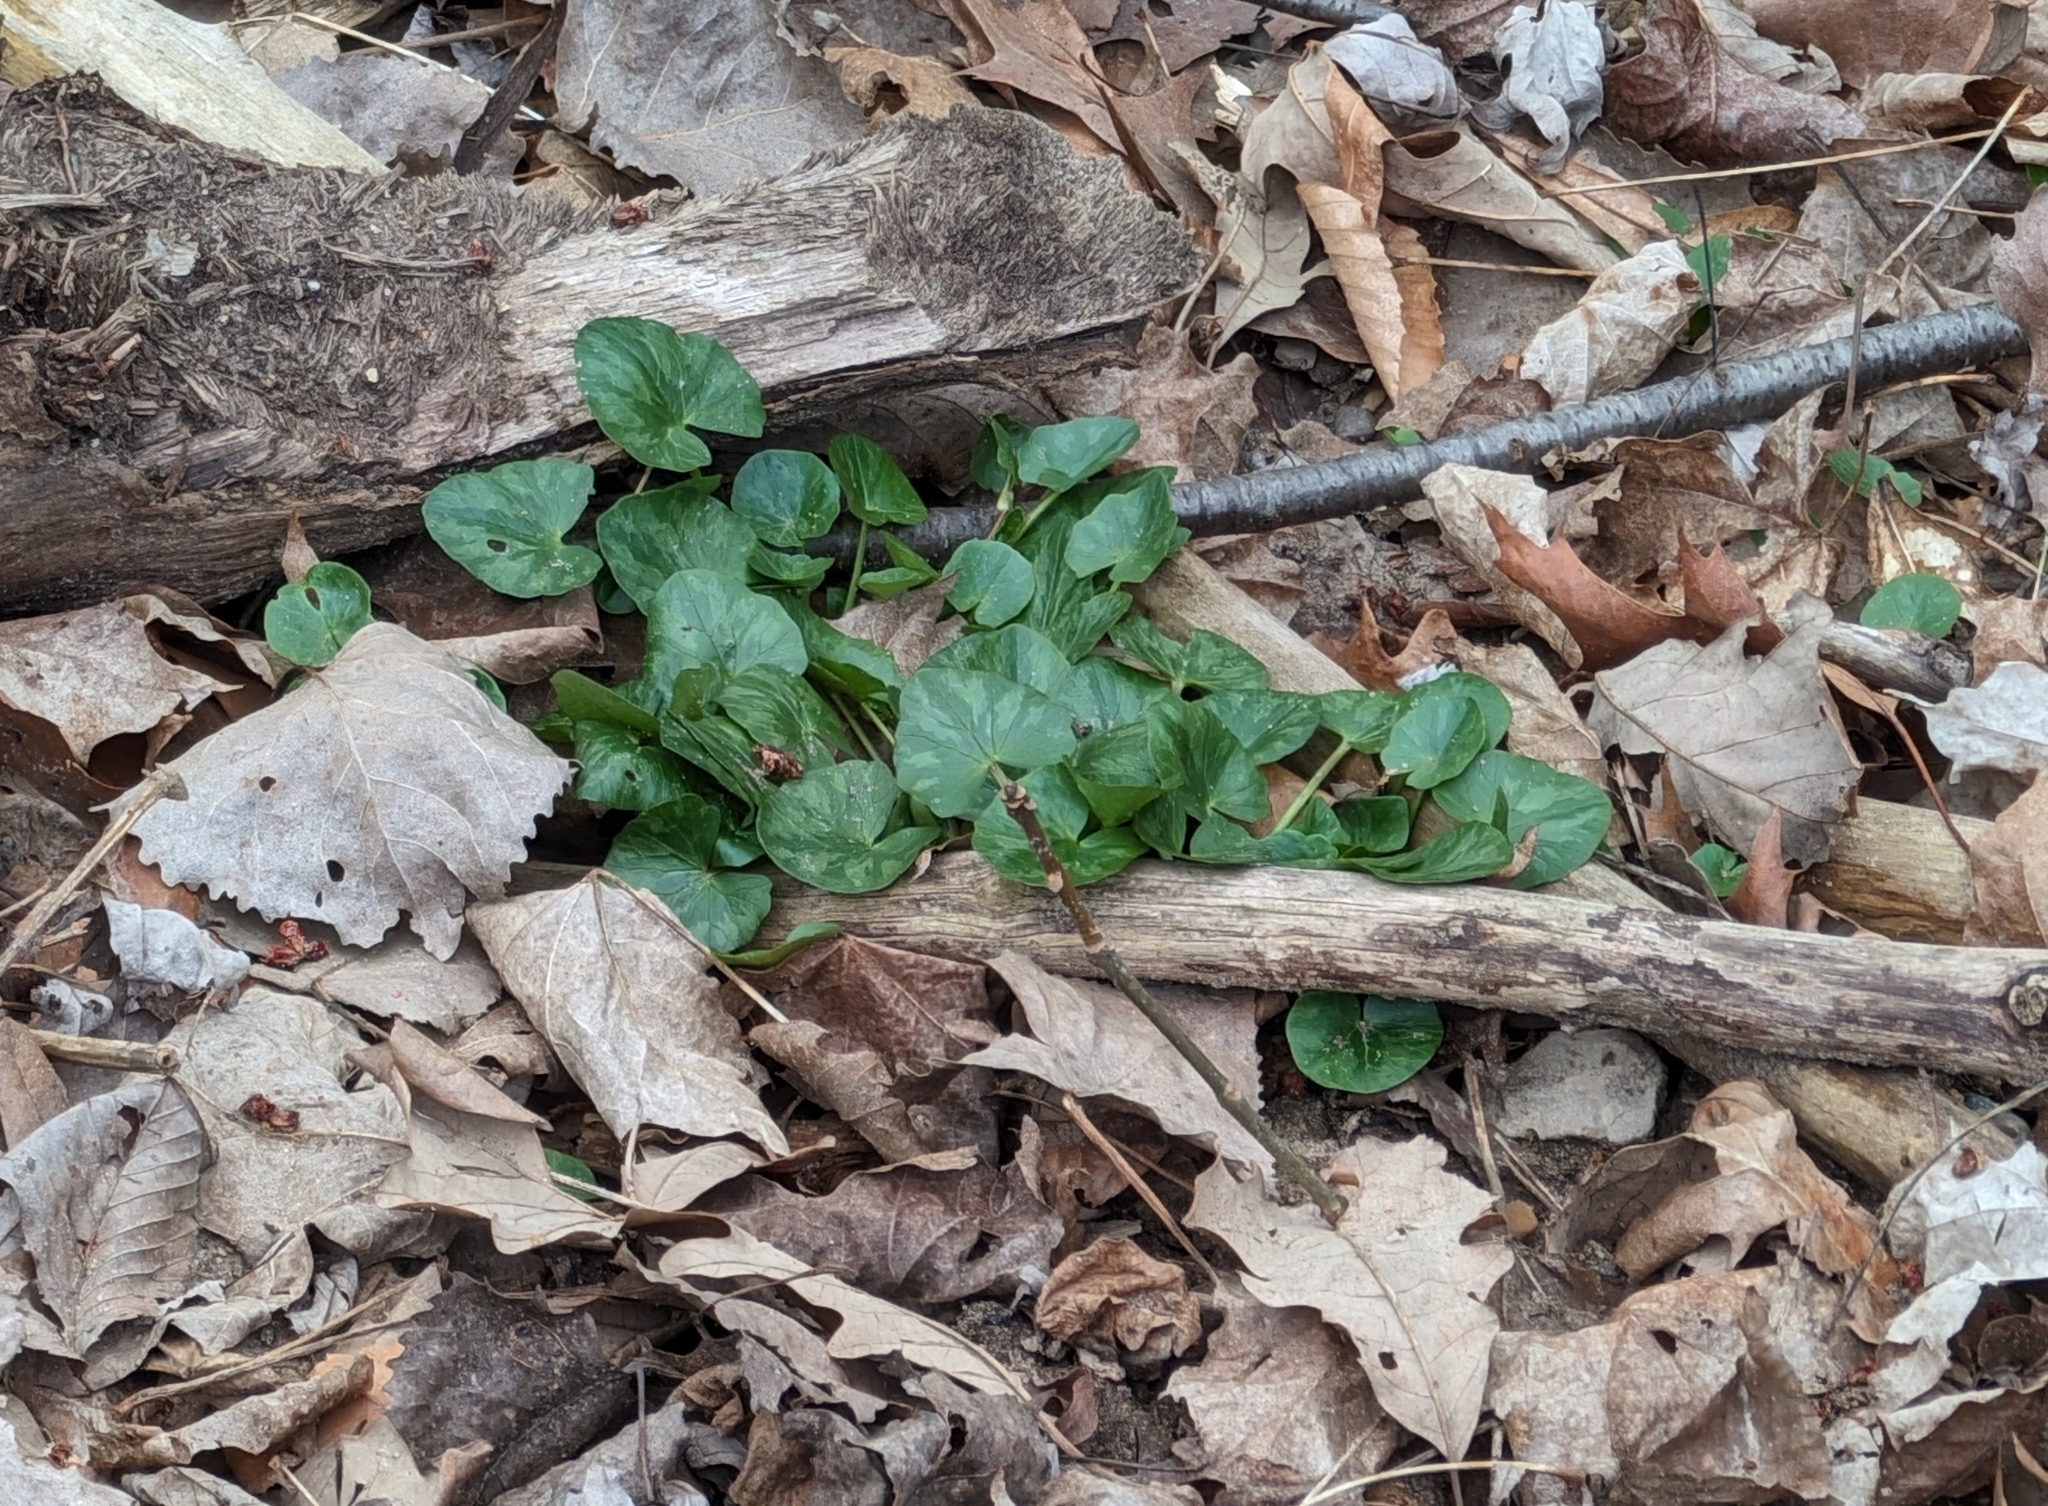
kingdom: Plantae
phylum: Tracheophyta
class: Magnoliopsida
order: Ranunculales
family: Ranunculaceae
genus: Ficaria
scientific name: Ficaria verna
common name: Lesser celandine
